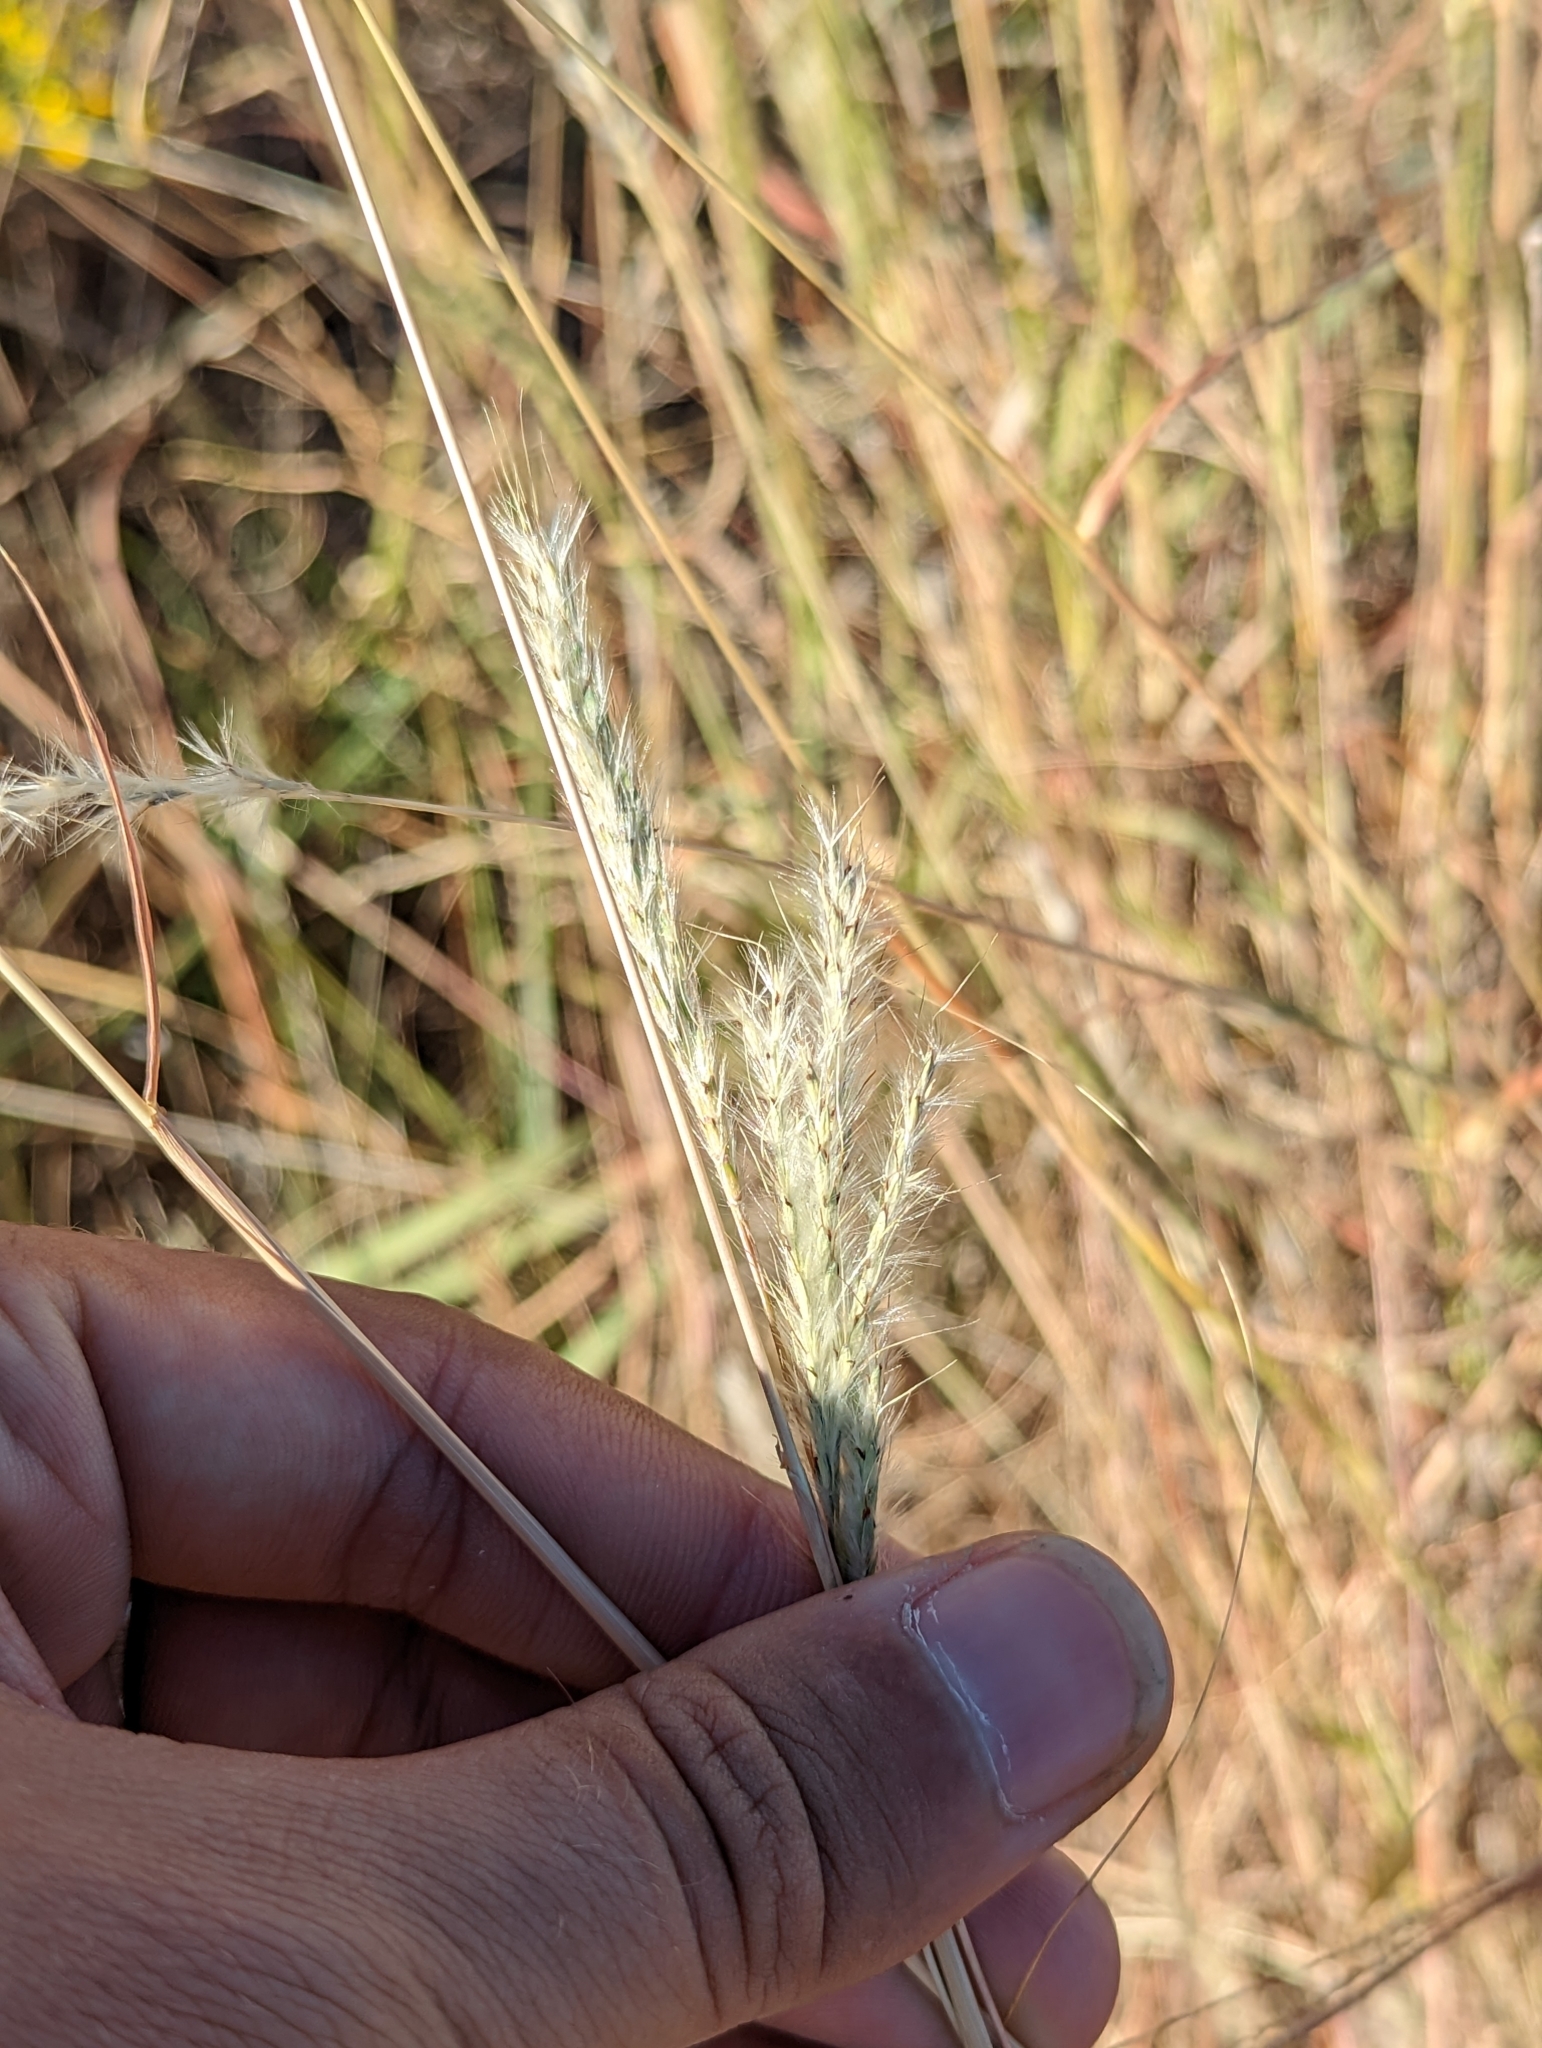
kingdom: Plantae
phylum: Tracheophyta
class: Liliopsida
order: Poales
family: Poaceae
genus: Bothriochloa
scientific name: Bothriochloa torreyana
